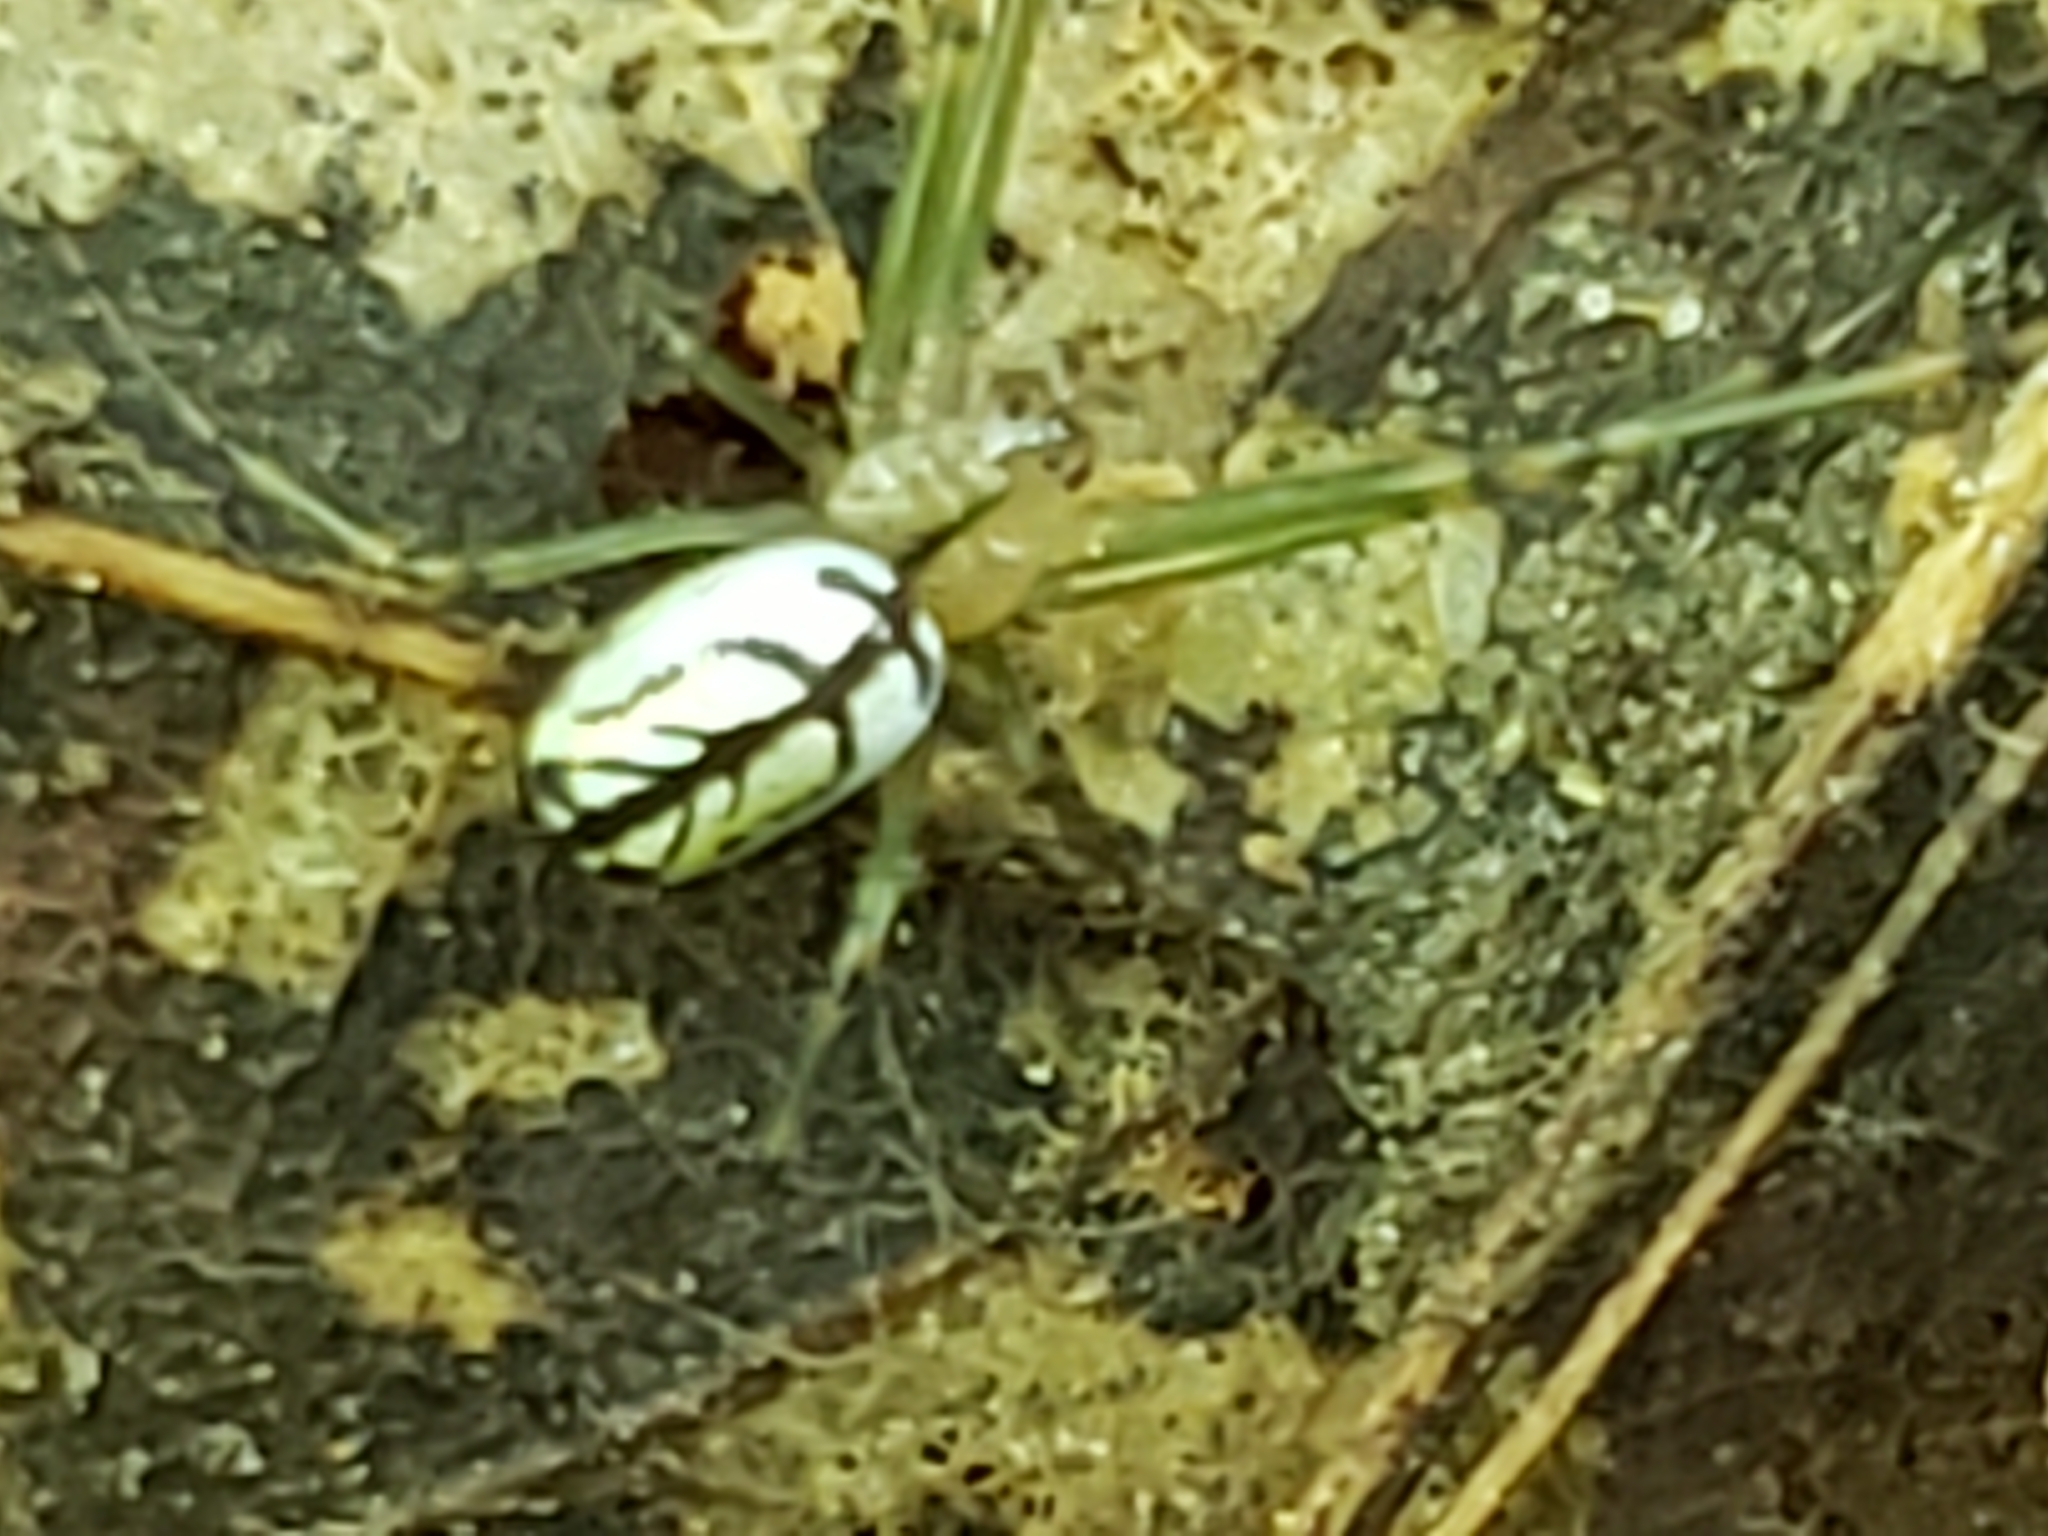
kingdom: Animalia
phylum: Arthropoda
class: Arachnida
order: Araneae
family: Tetragnathidae
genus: Leucauge
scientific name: Leucauge venusta
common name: Longjawed orb weavers
